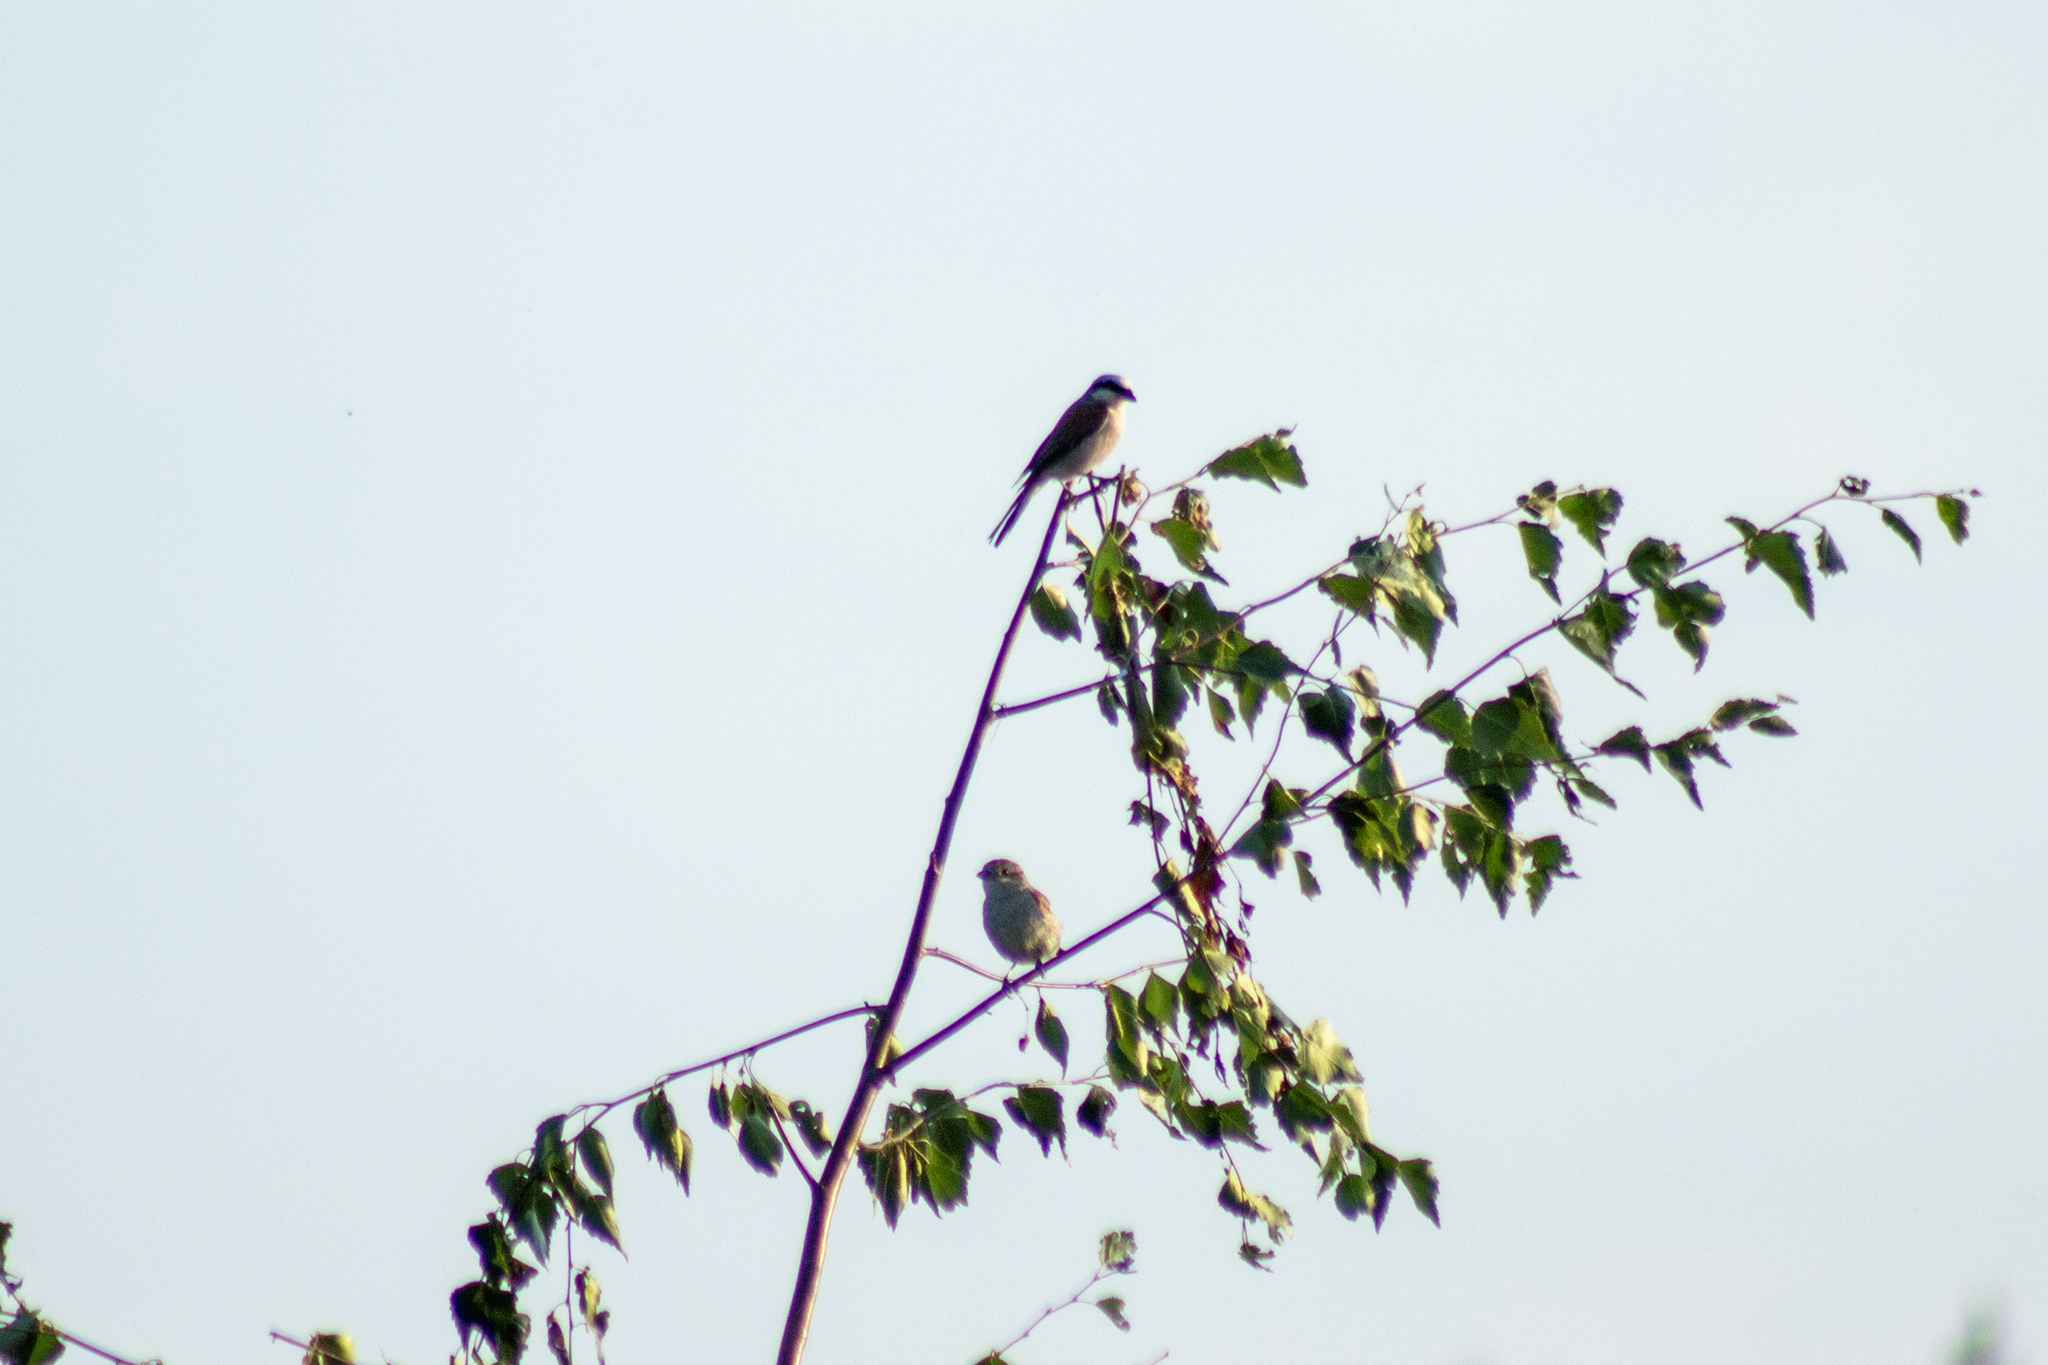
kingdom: Animalia
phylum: Chordata
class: Aves
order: Passeriformes
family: Laniidae
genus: Lanius
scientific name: Lanius collurio
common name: Red-backed shrike
